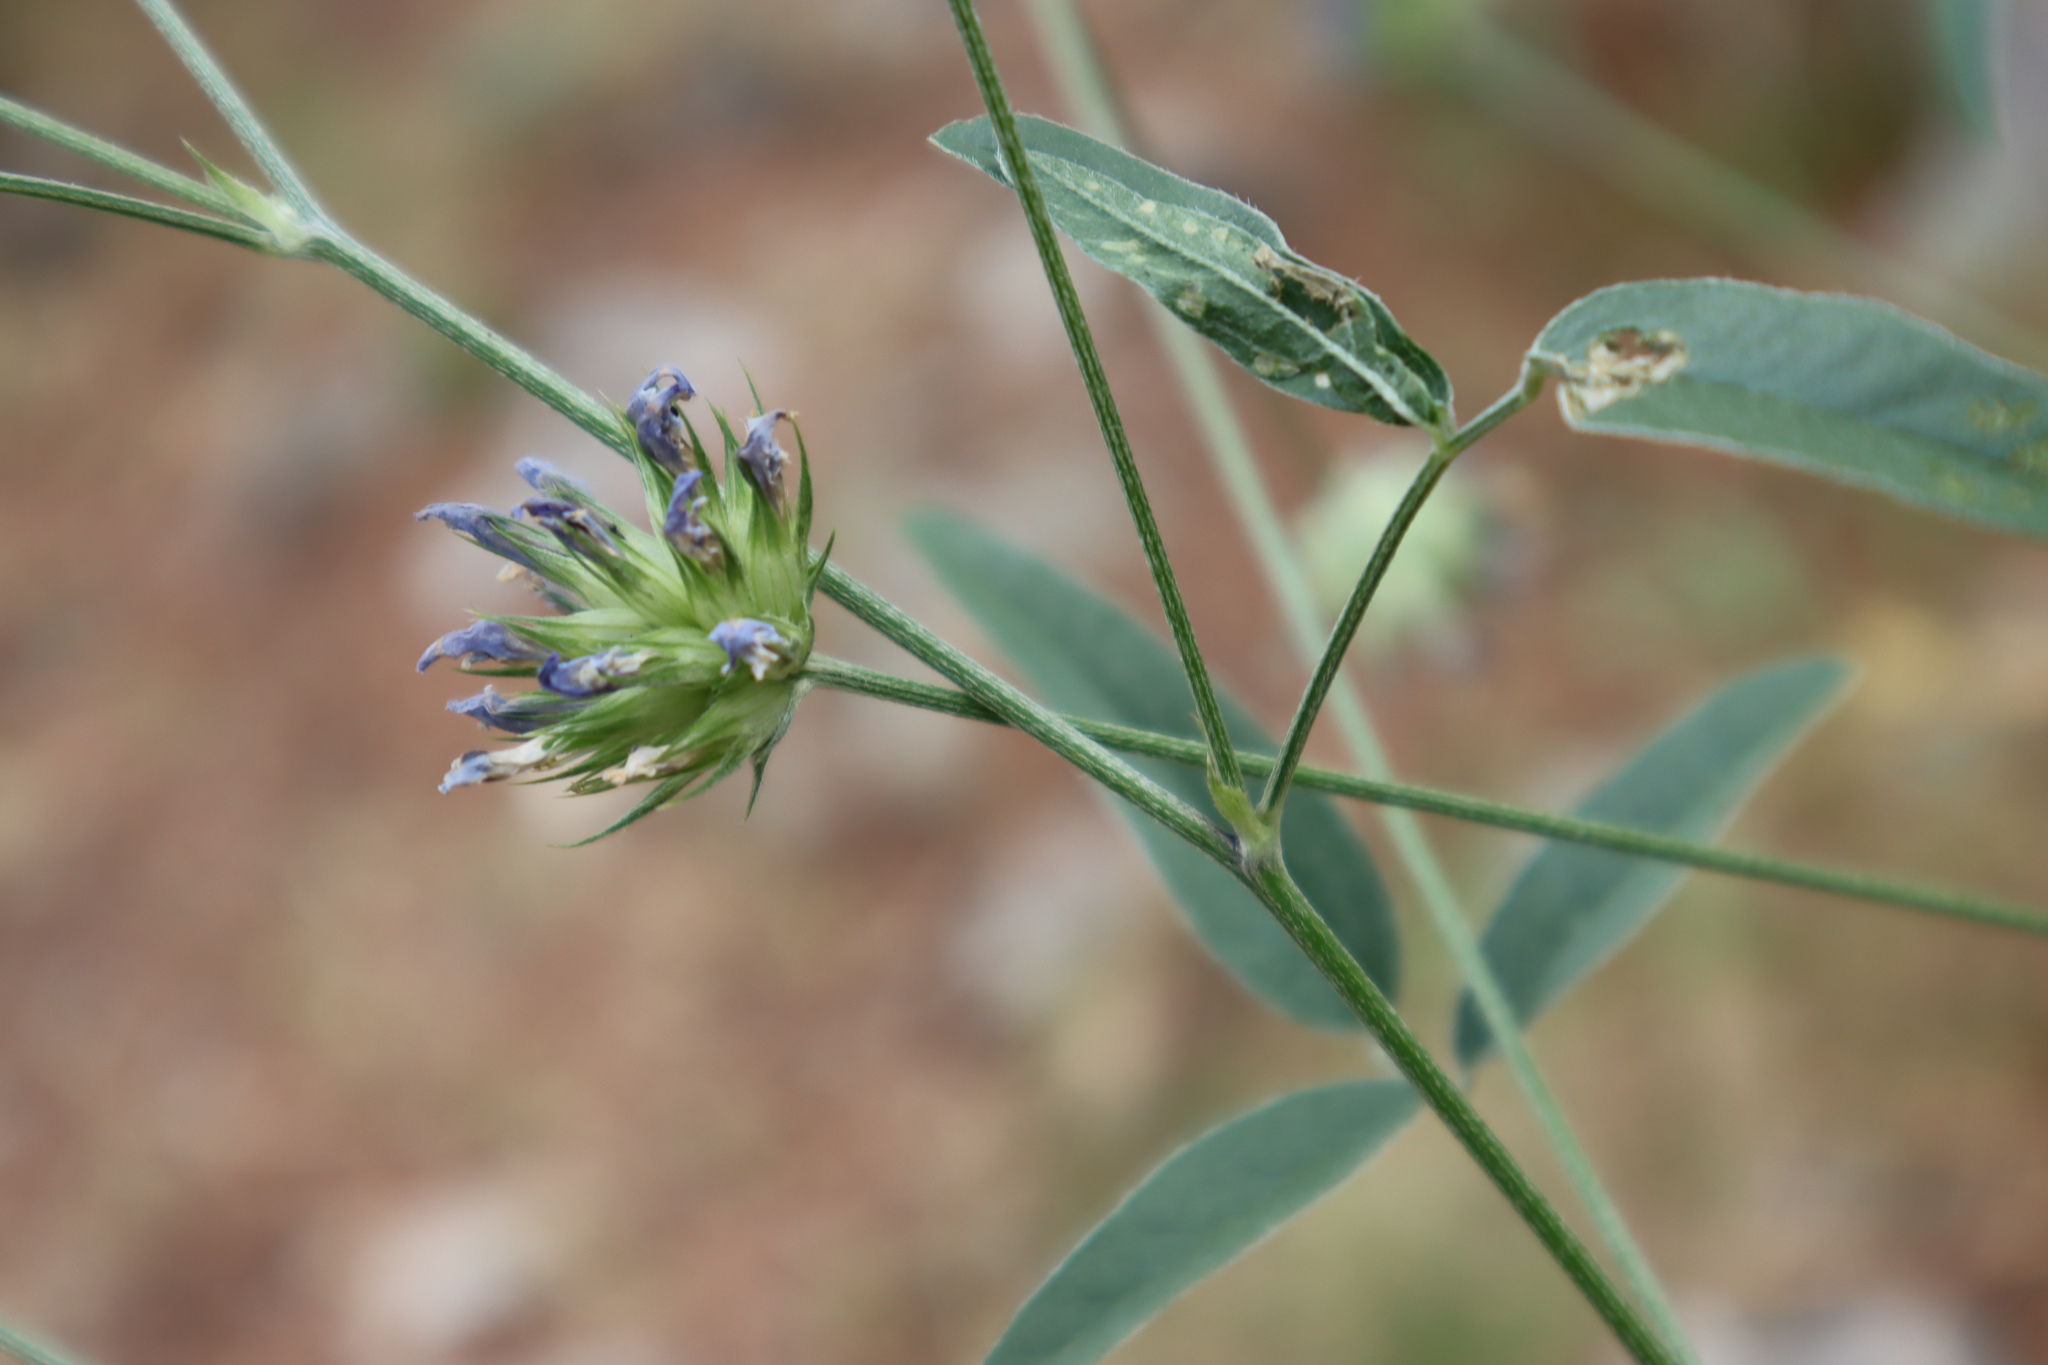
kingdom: Plantae
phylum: Tracheophyta
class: Magnoliopsida
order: Fabales
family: Fabaceae
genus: Bituminaria
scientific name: Bituminaria bituminosa
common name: Arabian pea
